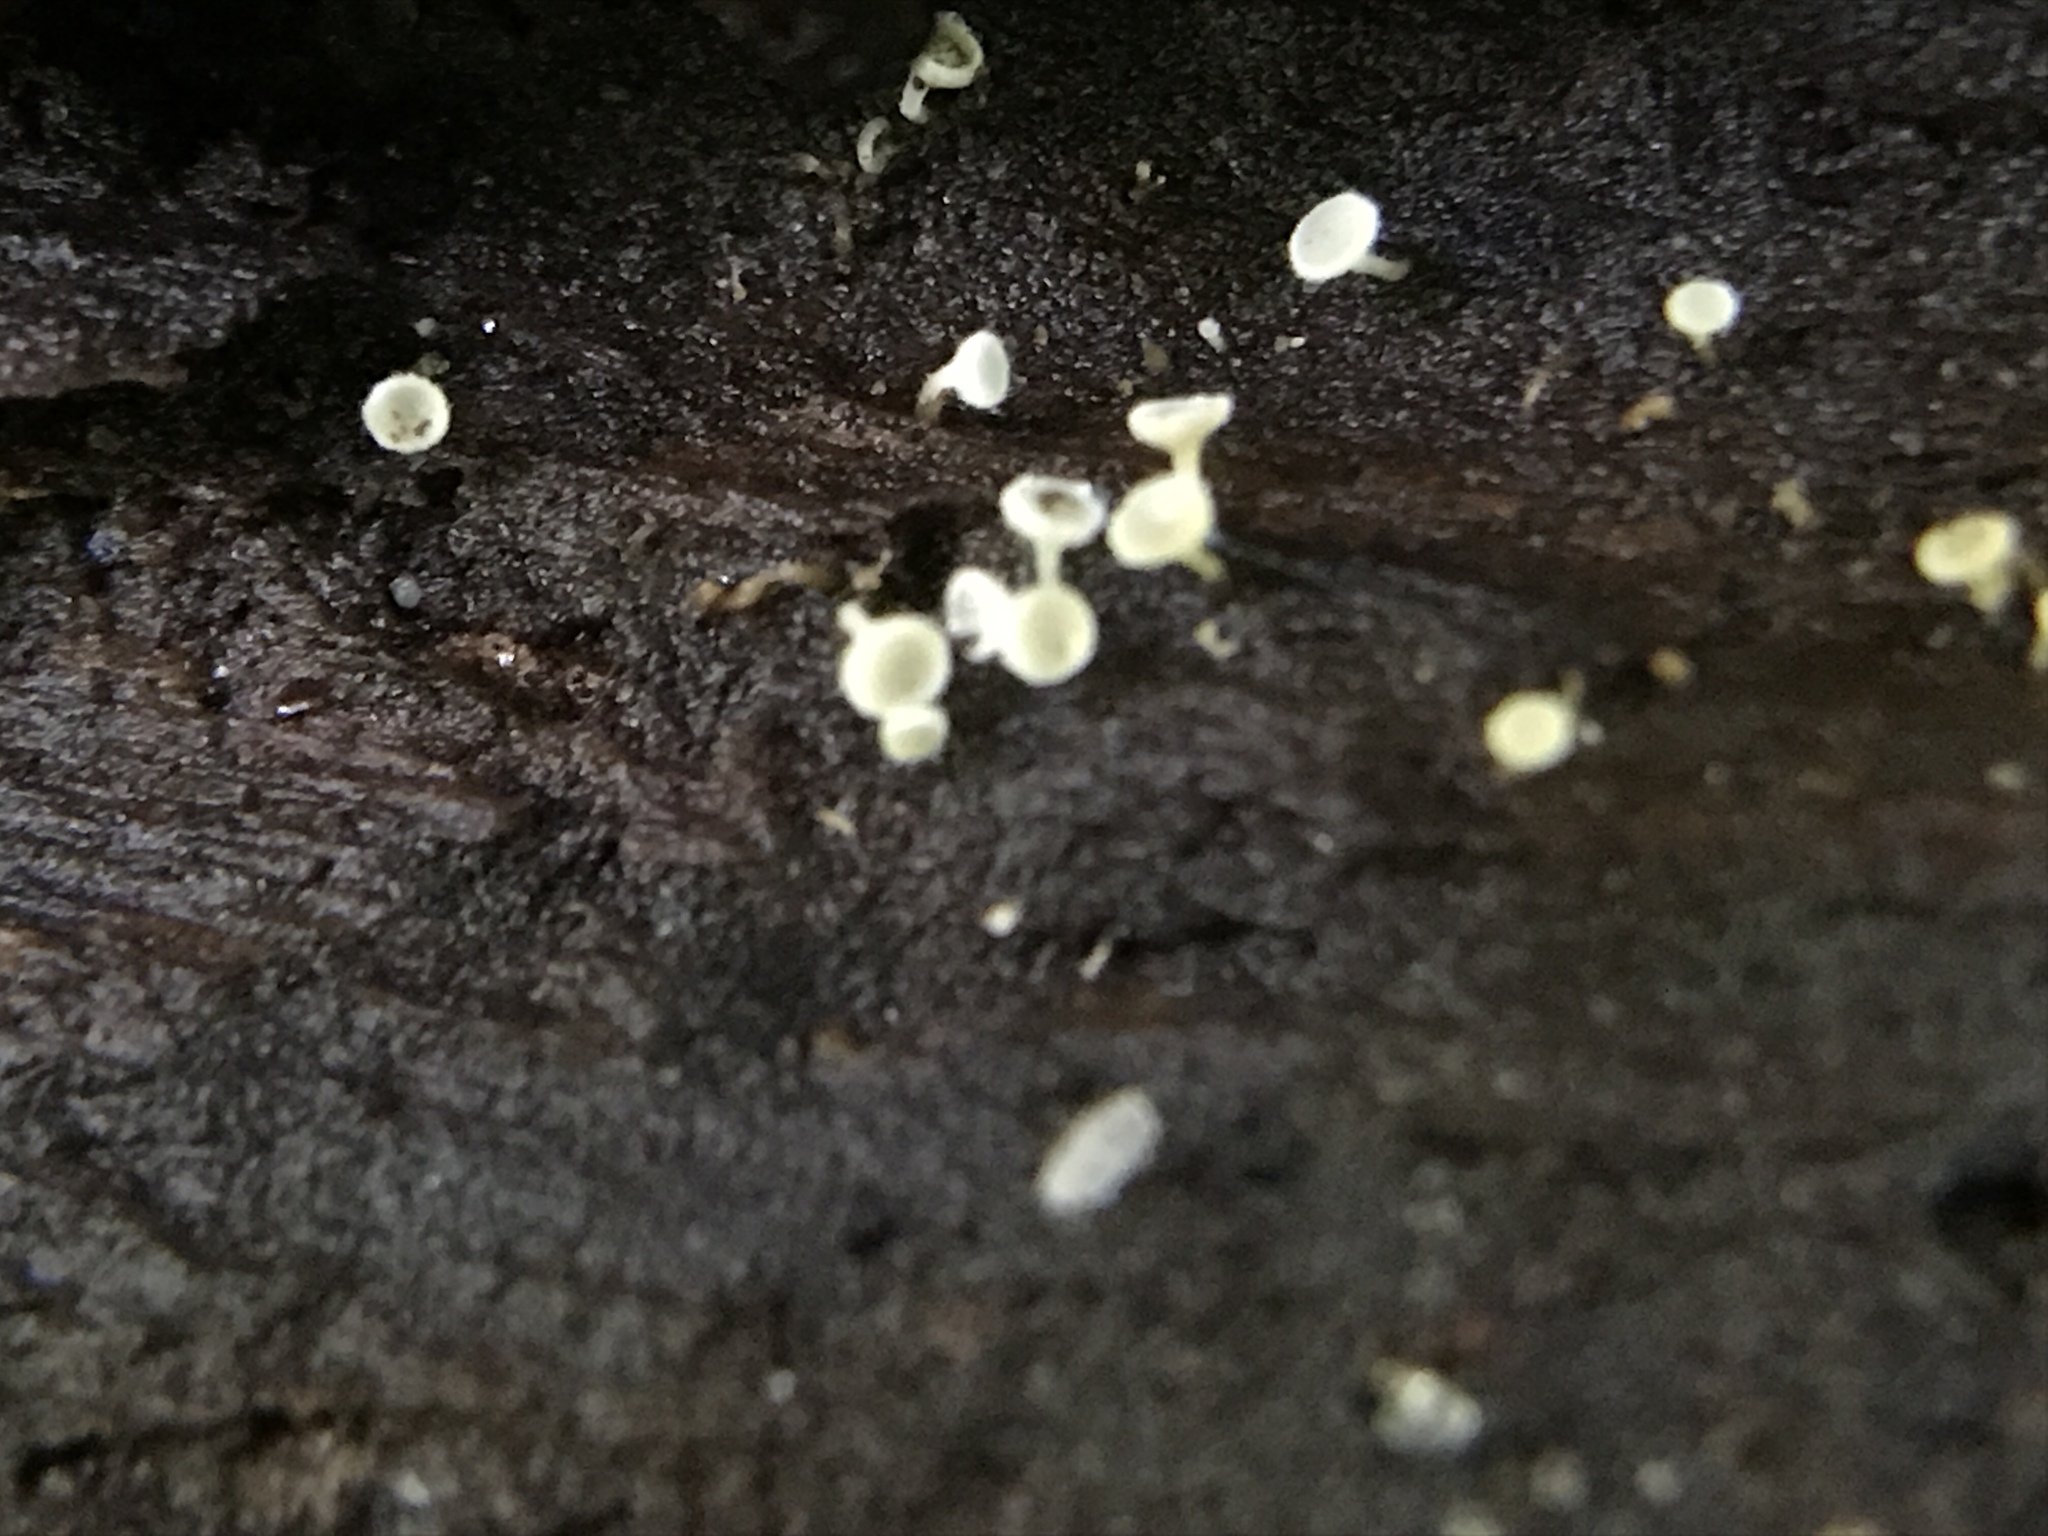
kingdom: Fungi
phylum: Ascomycota
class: Leotiomycetes
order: Helotiales
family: Lachnaceae
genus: Lachnum
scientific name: Lachnum virgineum
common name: Snowy disco
